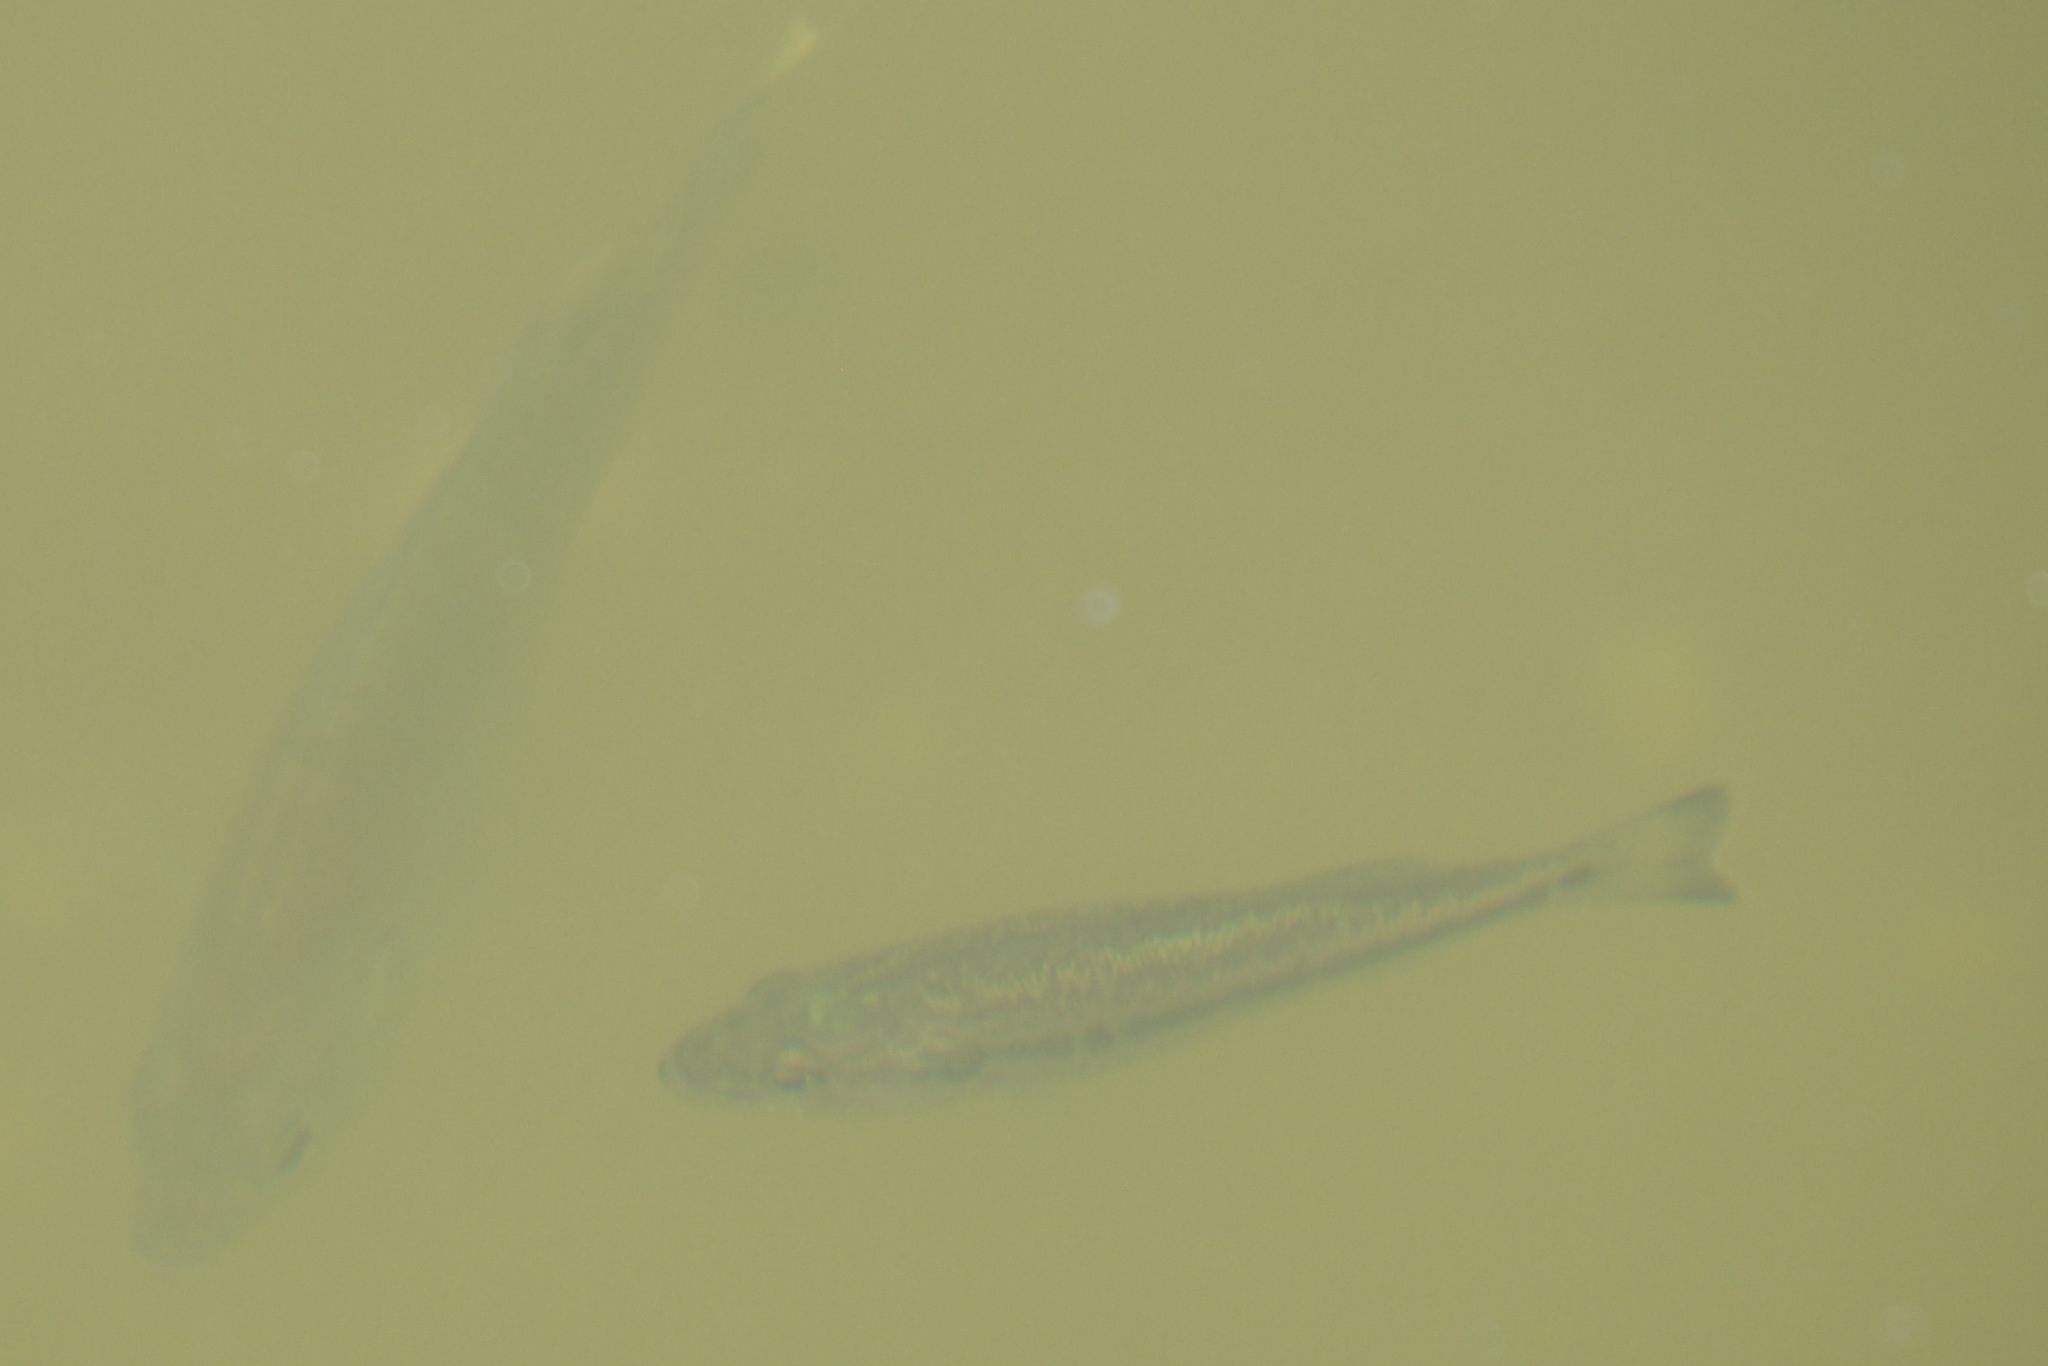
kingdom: Animalia
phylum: Chordata
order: Perciformes
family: Centrarchidae
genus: Micropterus
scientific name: Micropterus salmoides
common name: Largemouth bass
